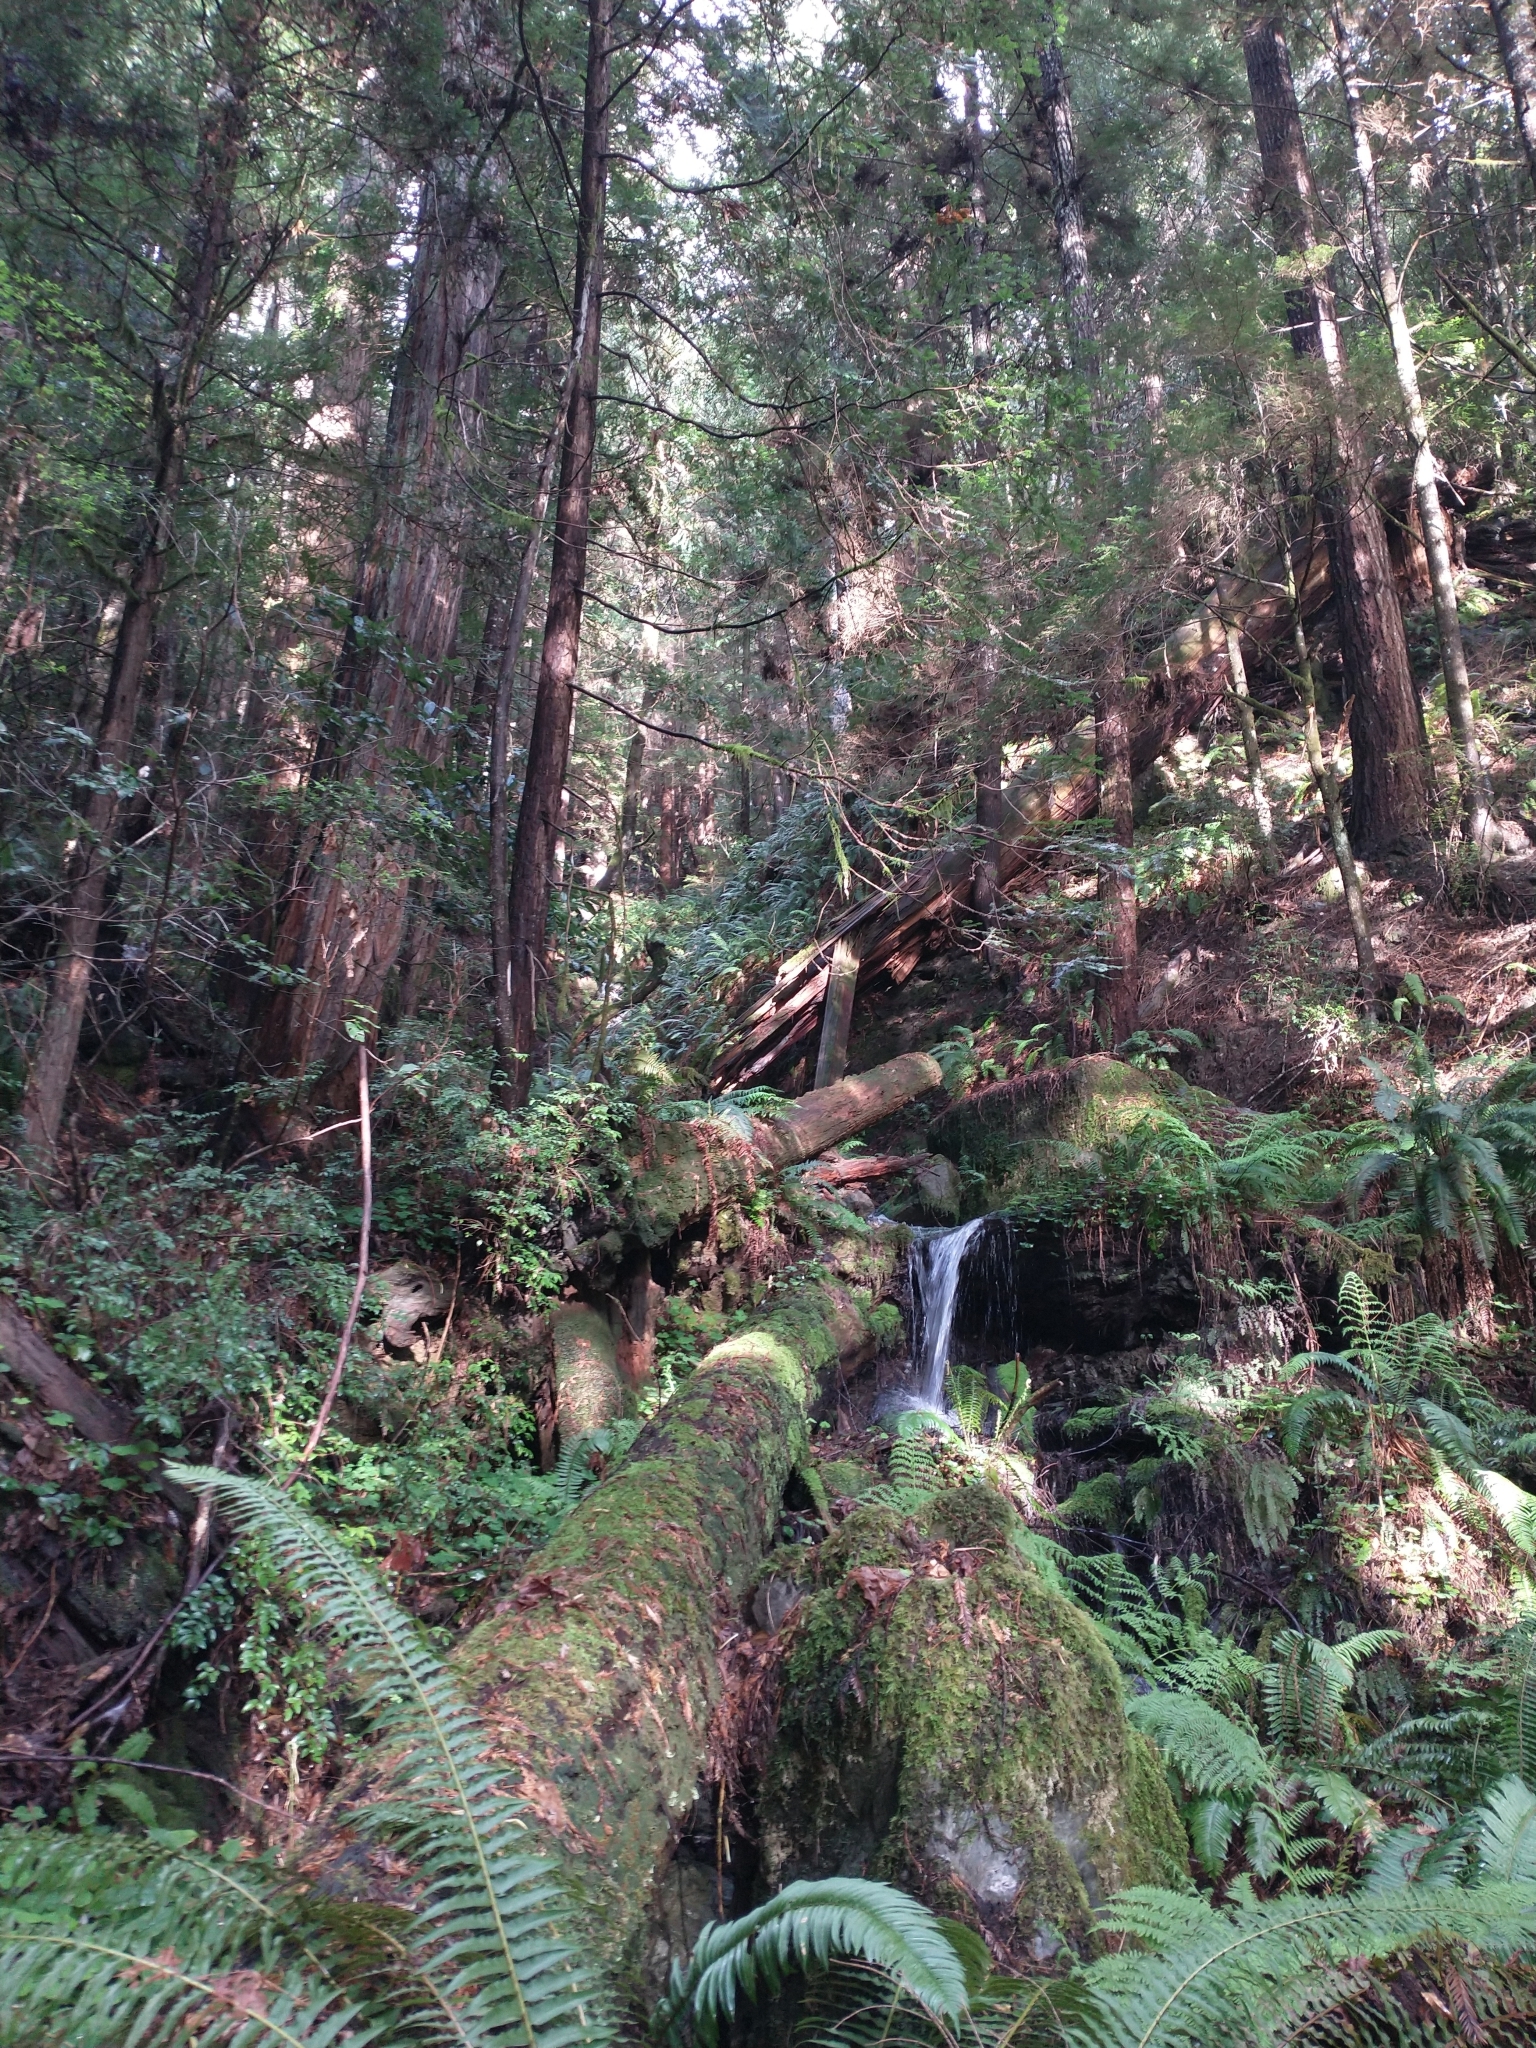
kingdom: Plantae
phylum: Tracheophyta
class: Pinopsida
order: Pinales
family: Cupressaceae
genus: Sequoia
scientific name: Sequoia sempervirens
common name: Coast redwood
